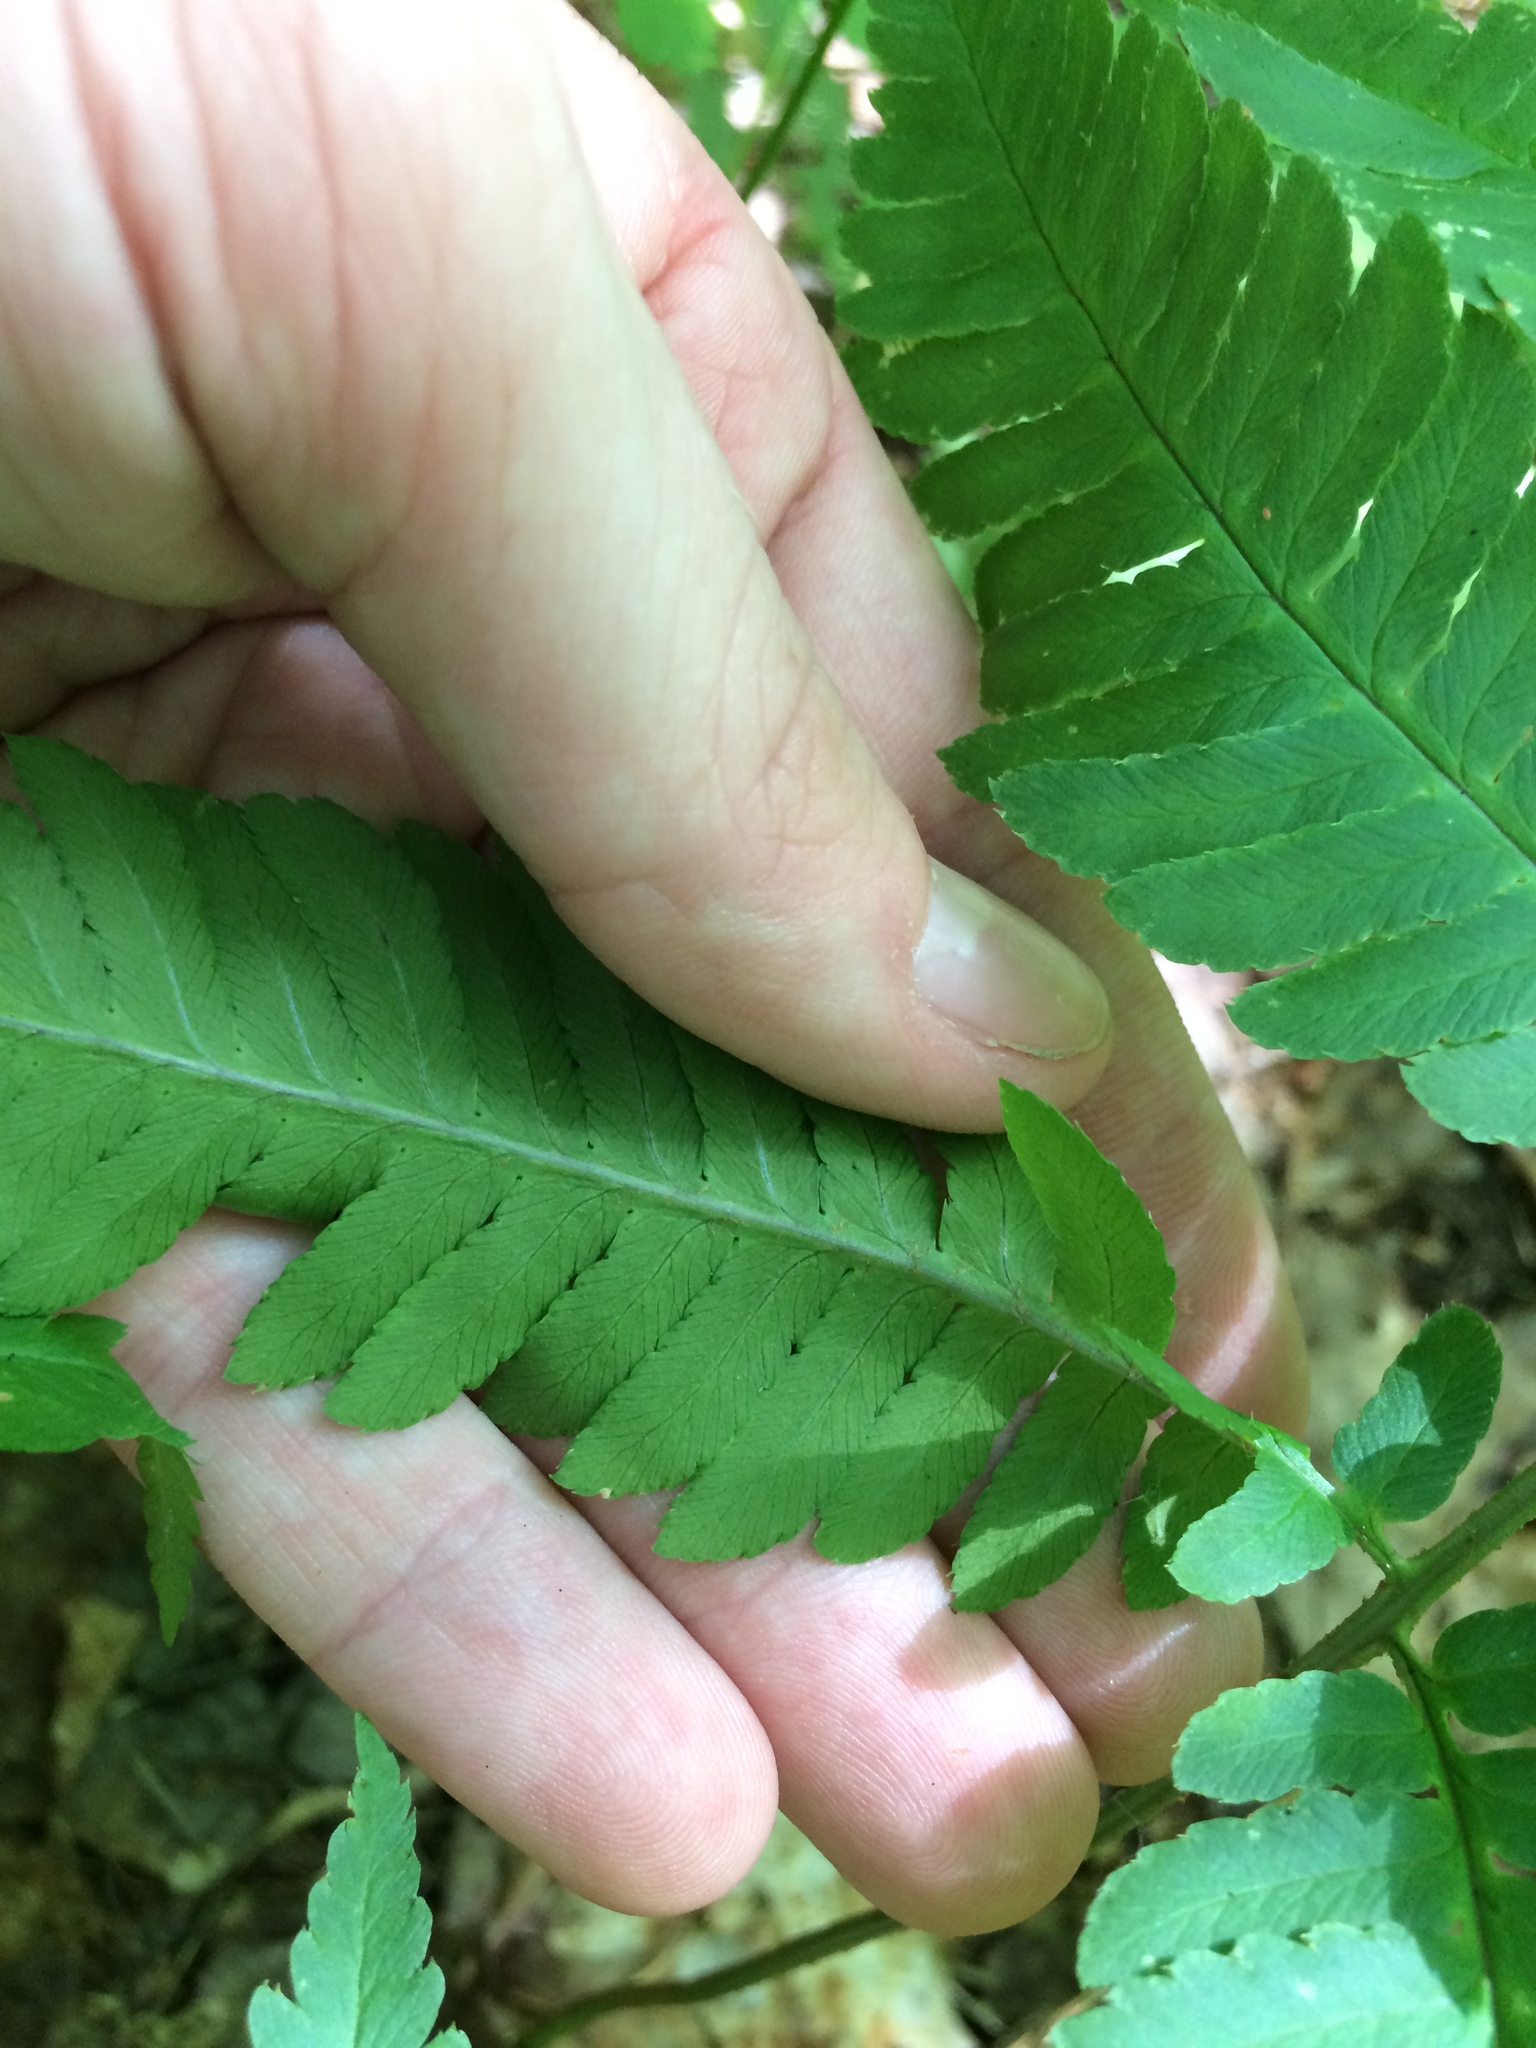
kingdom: Plantae
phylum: Tracheophyta
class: Polypodiopsida
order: Polypodiales
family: Dryopteridaceae
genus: Dryopteris
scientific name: Dryopteris goldieana
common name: Goldie's fern
